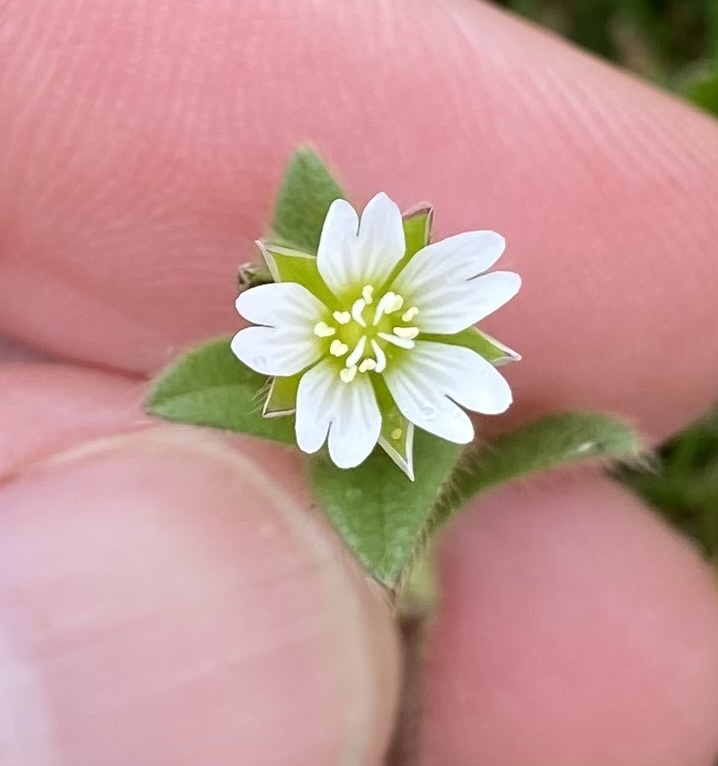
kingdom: Plantae
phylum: Tracheophyta
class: Magnoliopsida
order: Caryophyllales
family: Caryophyllaceae
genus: Cerastium
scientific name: Cerastium fontanum
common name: Common mouse-ear
